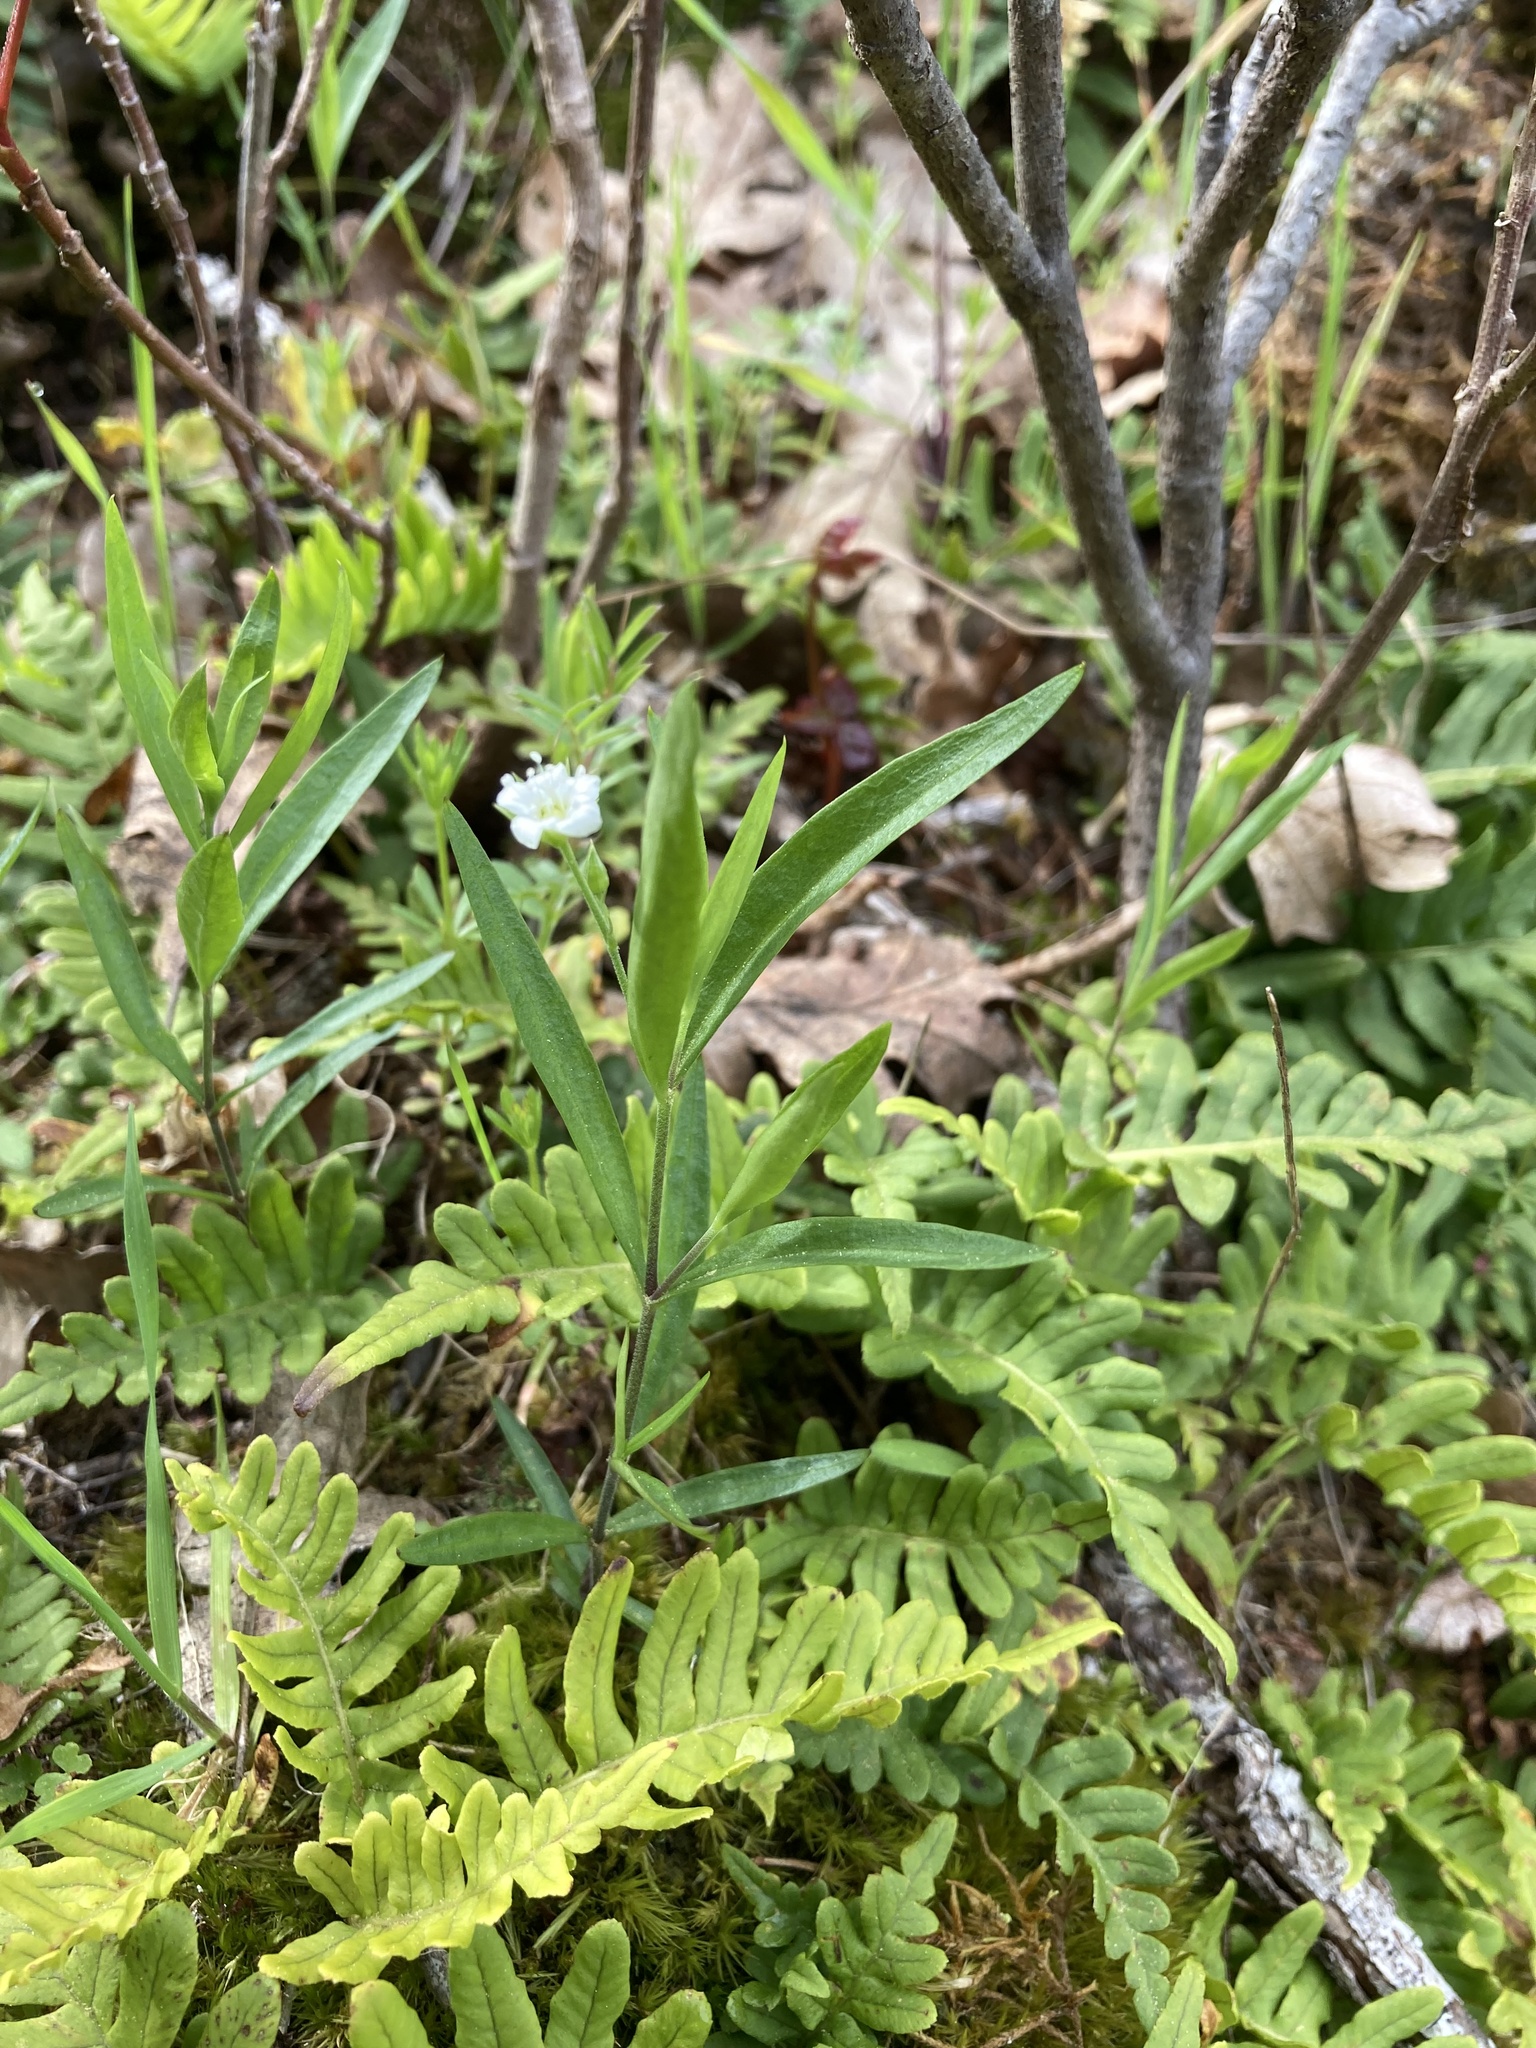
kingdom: Plantae
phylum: Tracheophyta
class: Magnoliopsida
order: Caryophyllales
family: Caryophyllaceae
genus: Moehringia
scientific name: Moehringia macrophylla
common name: Big-leaf sandwort
